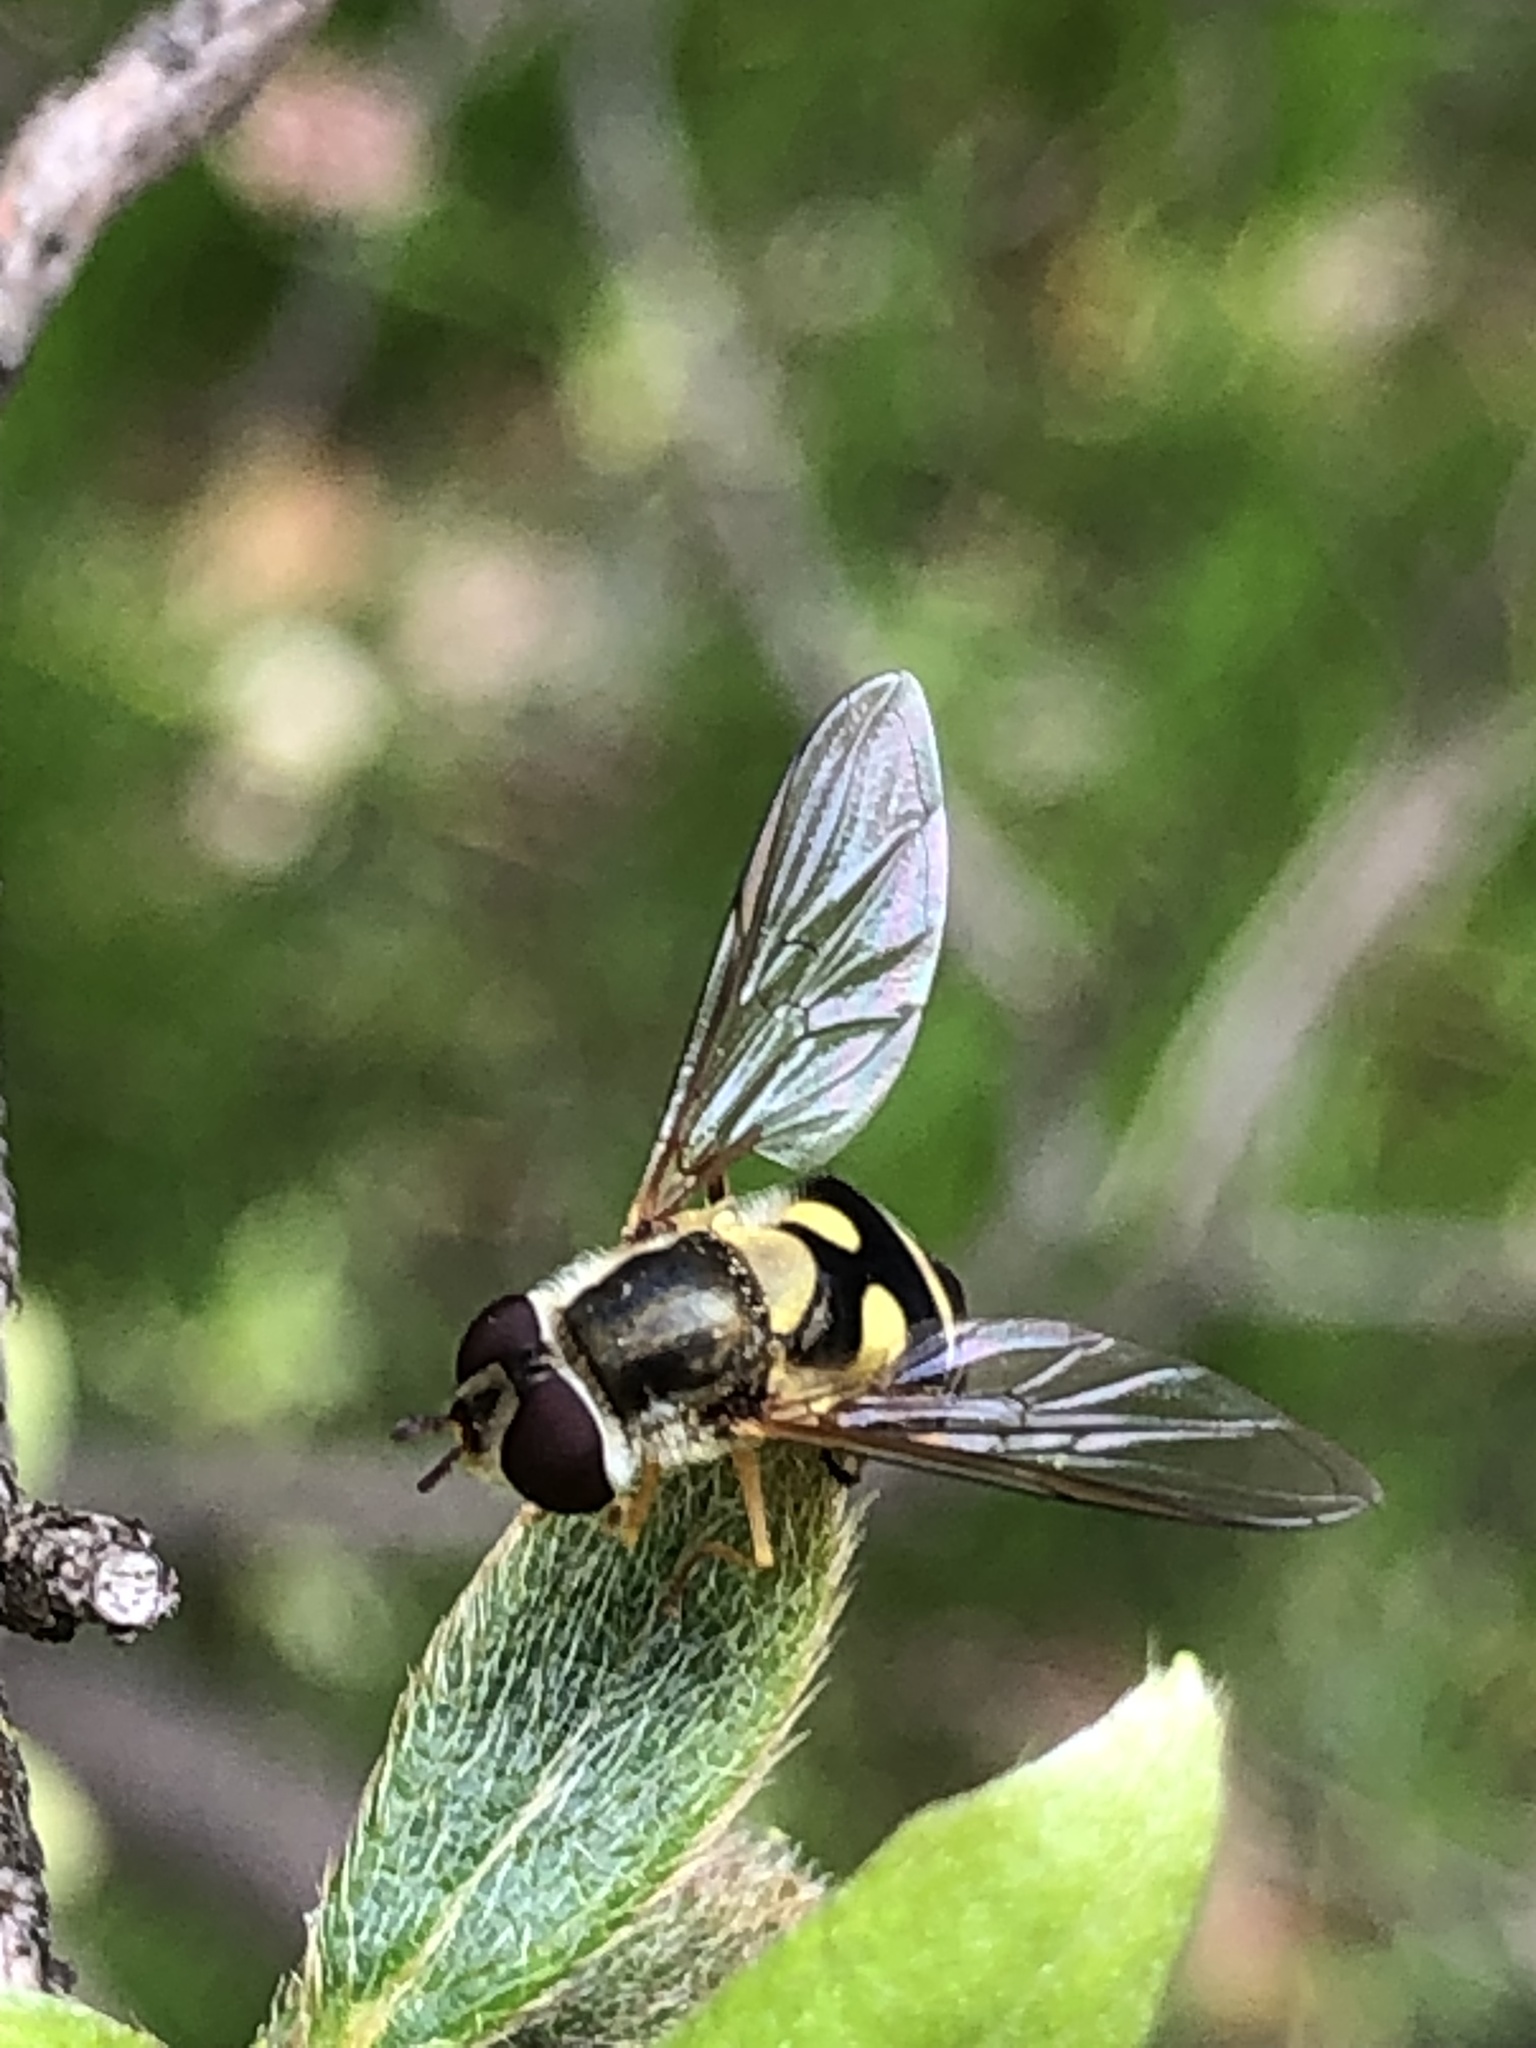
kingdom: Animalia
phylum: Arthropoda
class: Insecta
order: Diptera
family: Syrphidae
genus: Syrphus
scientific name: Syrphus
